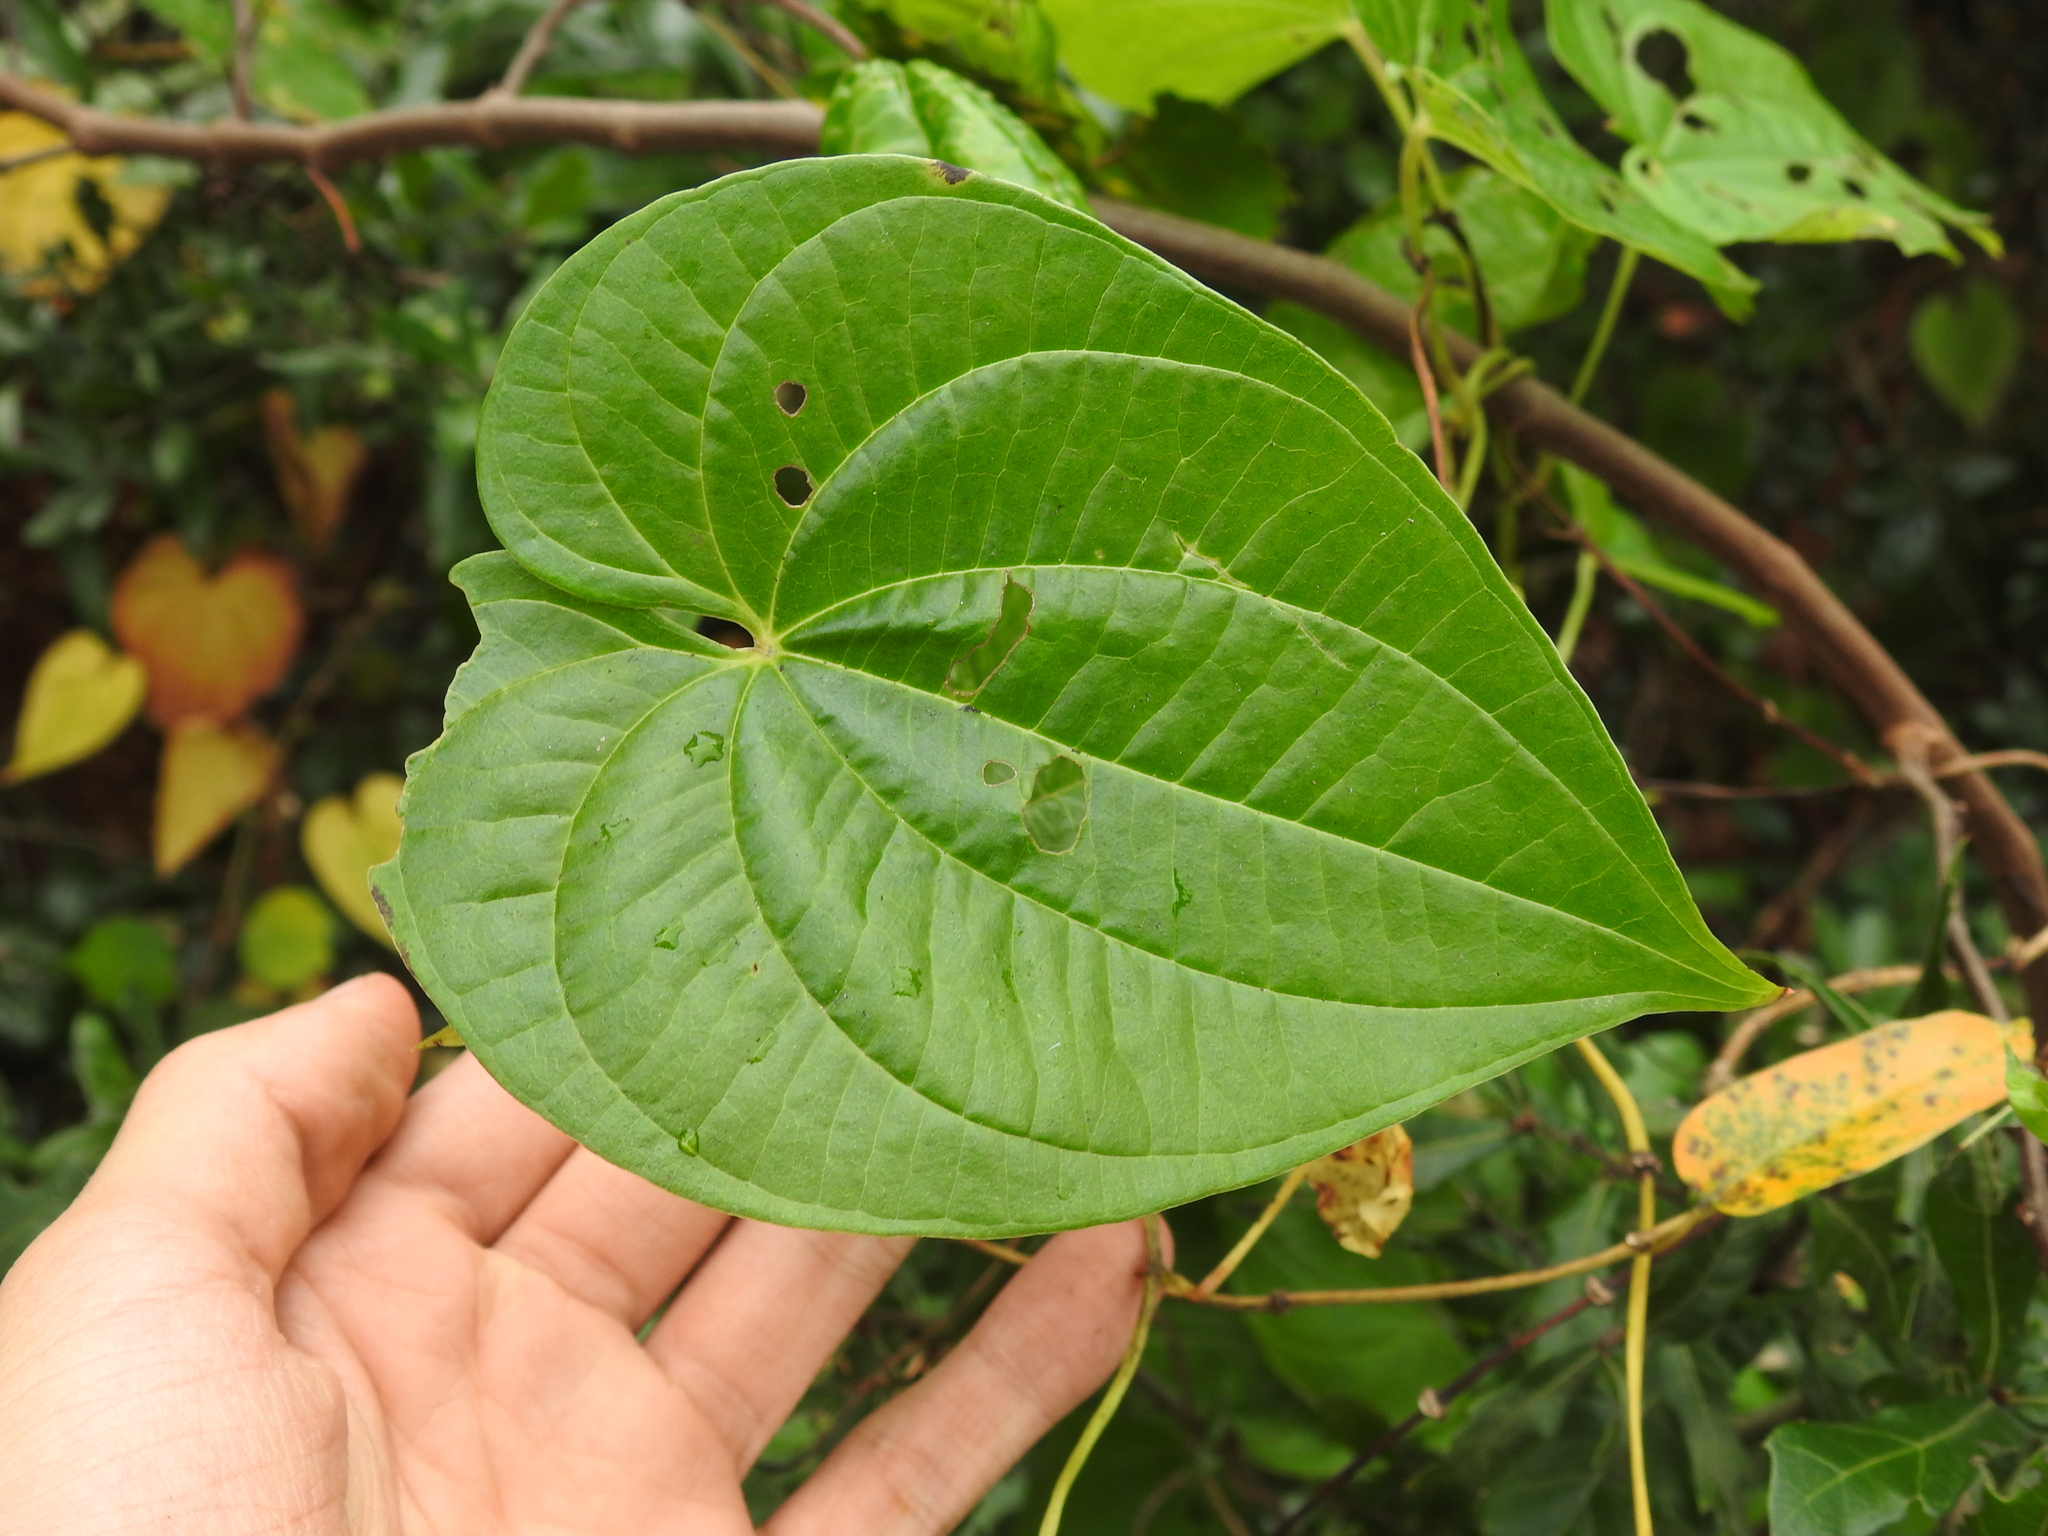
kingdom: Plantae
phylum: Tracheophyta
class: Liliopsida
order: Dioscoreales
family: Dioscoreaceae
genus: Dioscorea
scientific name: Dioscorea bulbifera
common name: Air yam
